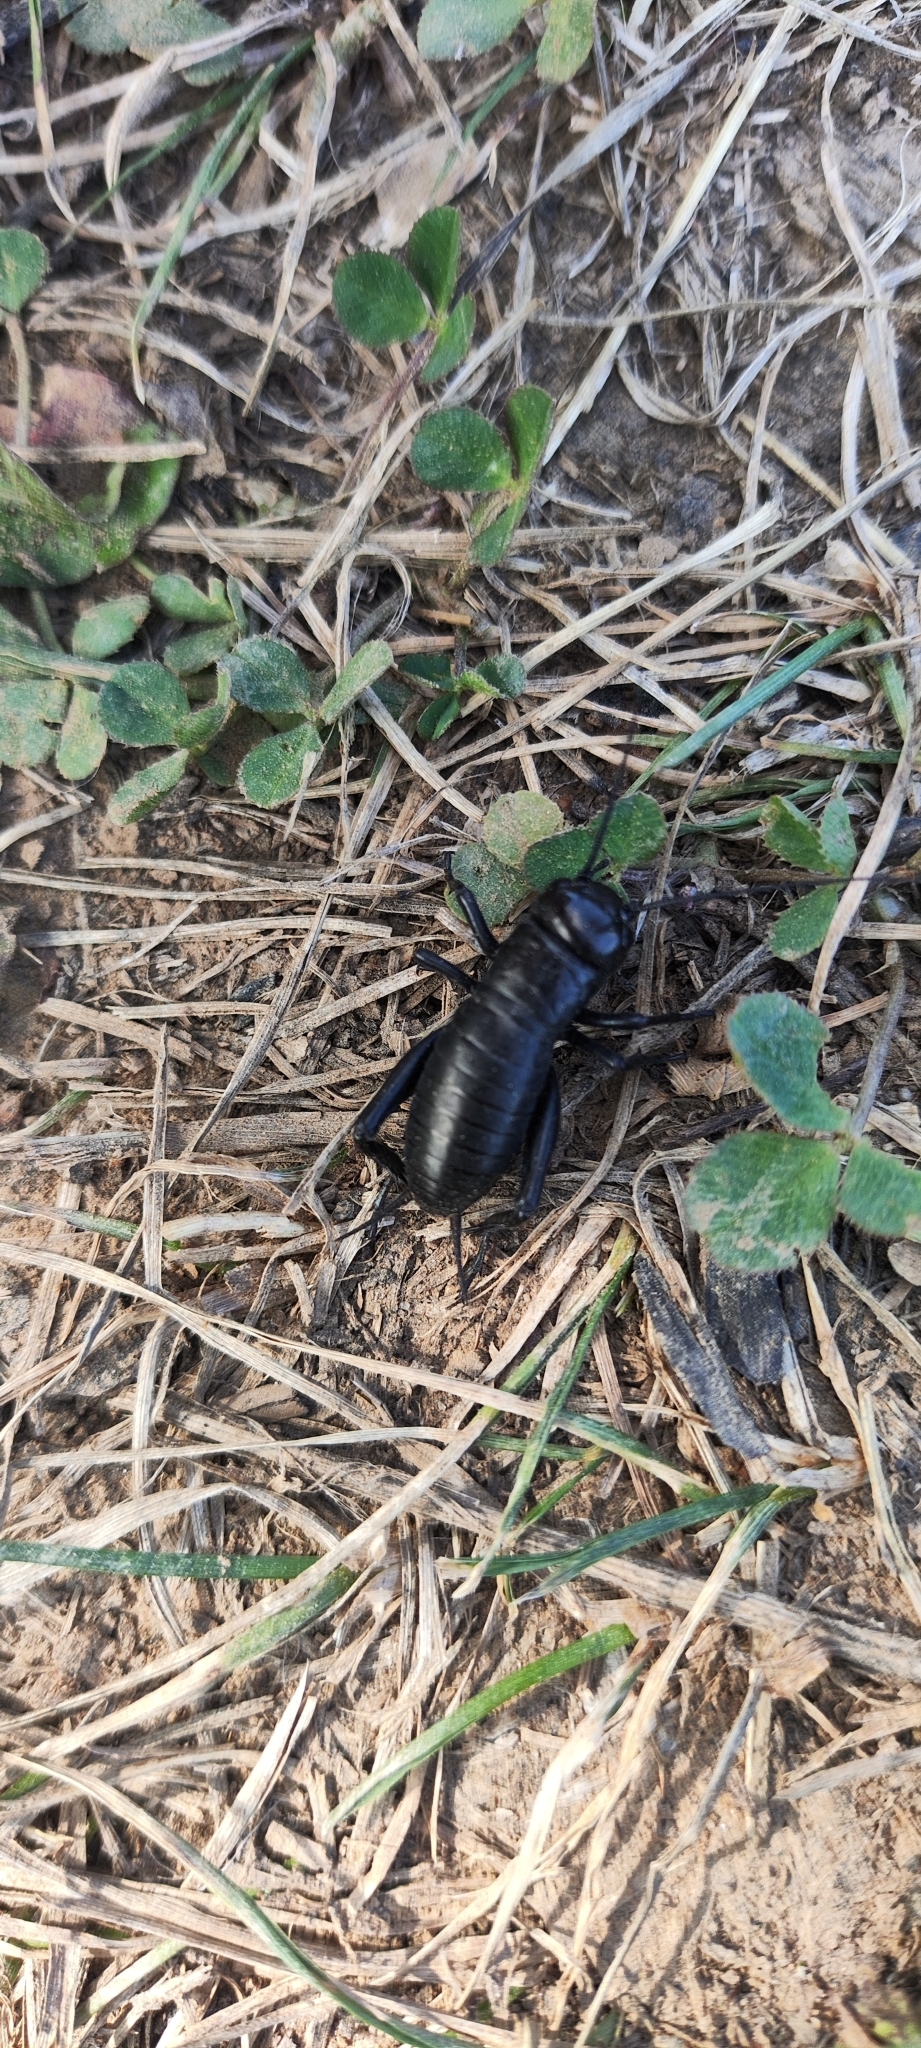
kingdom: Animalia
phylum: Arthropoda
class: Insecta
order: Orthoptera
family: Gryllidae
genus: Gryllus
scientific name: Gryllus campestris
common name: Field cricket
